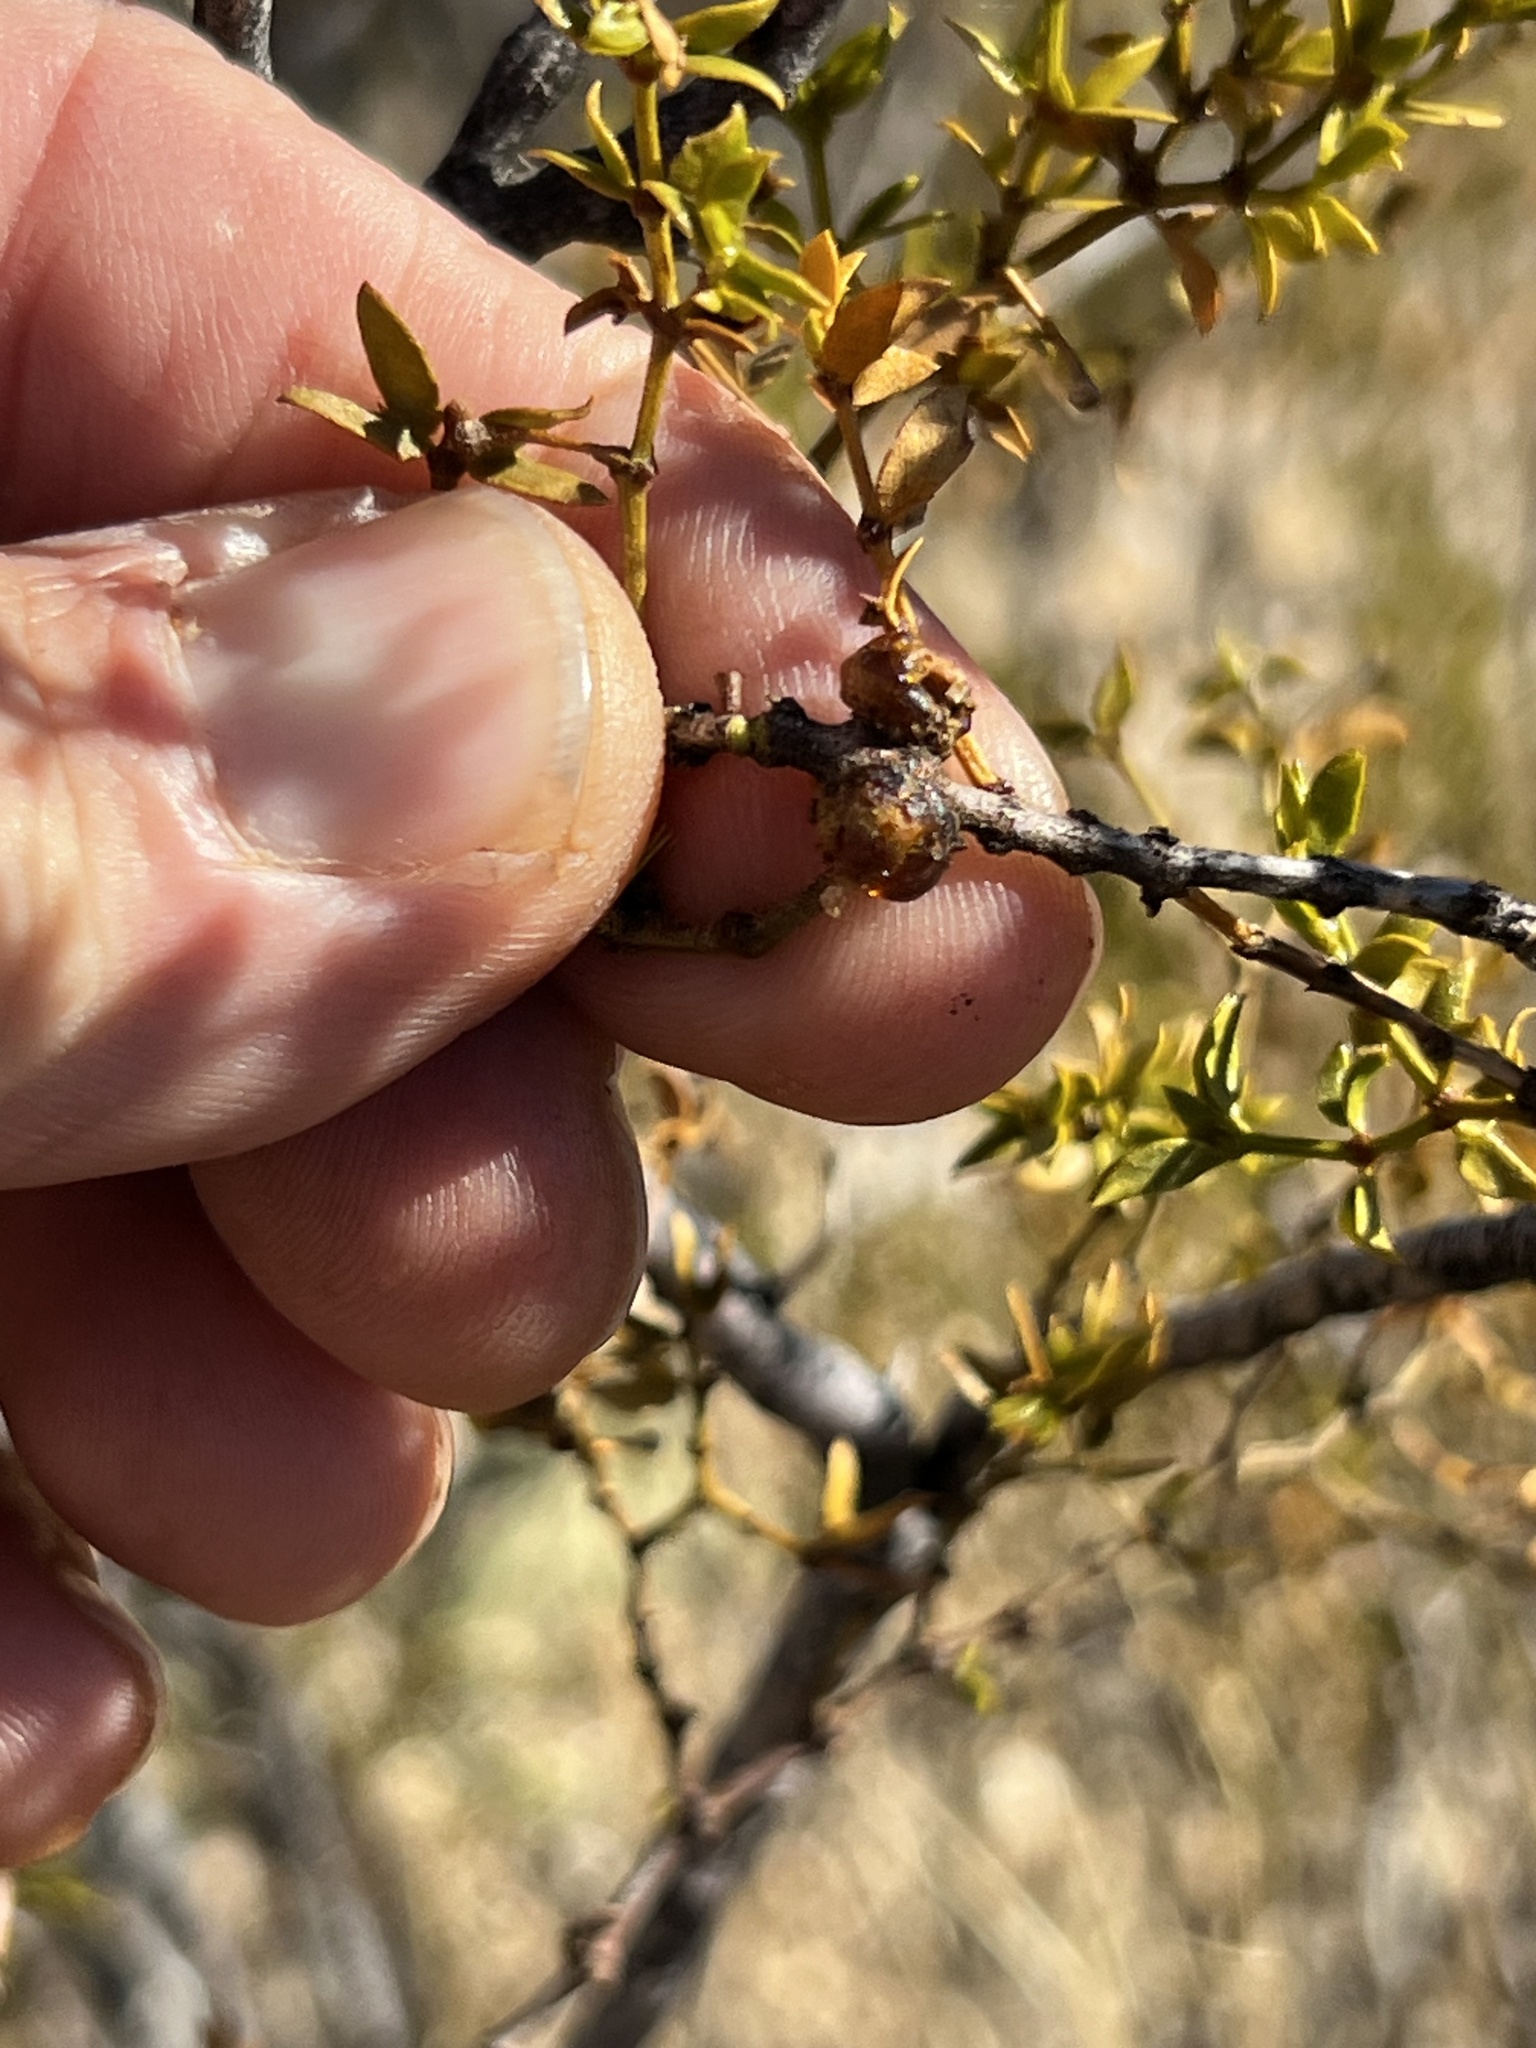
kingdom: Animalia
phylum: Arthropoda
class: Insecta
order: Diptera
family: Cecidomyiidae
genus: Asphondylia
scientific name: Asphondylia resinosa
